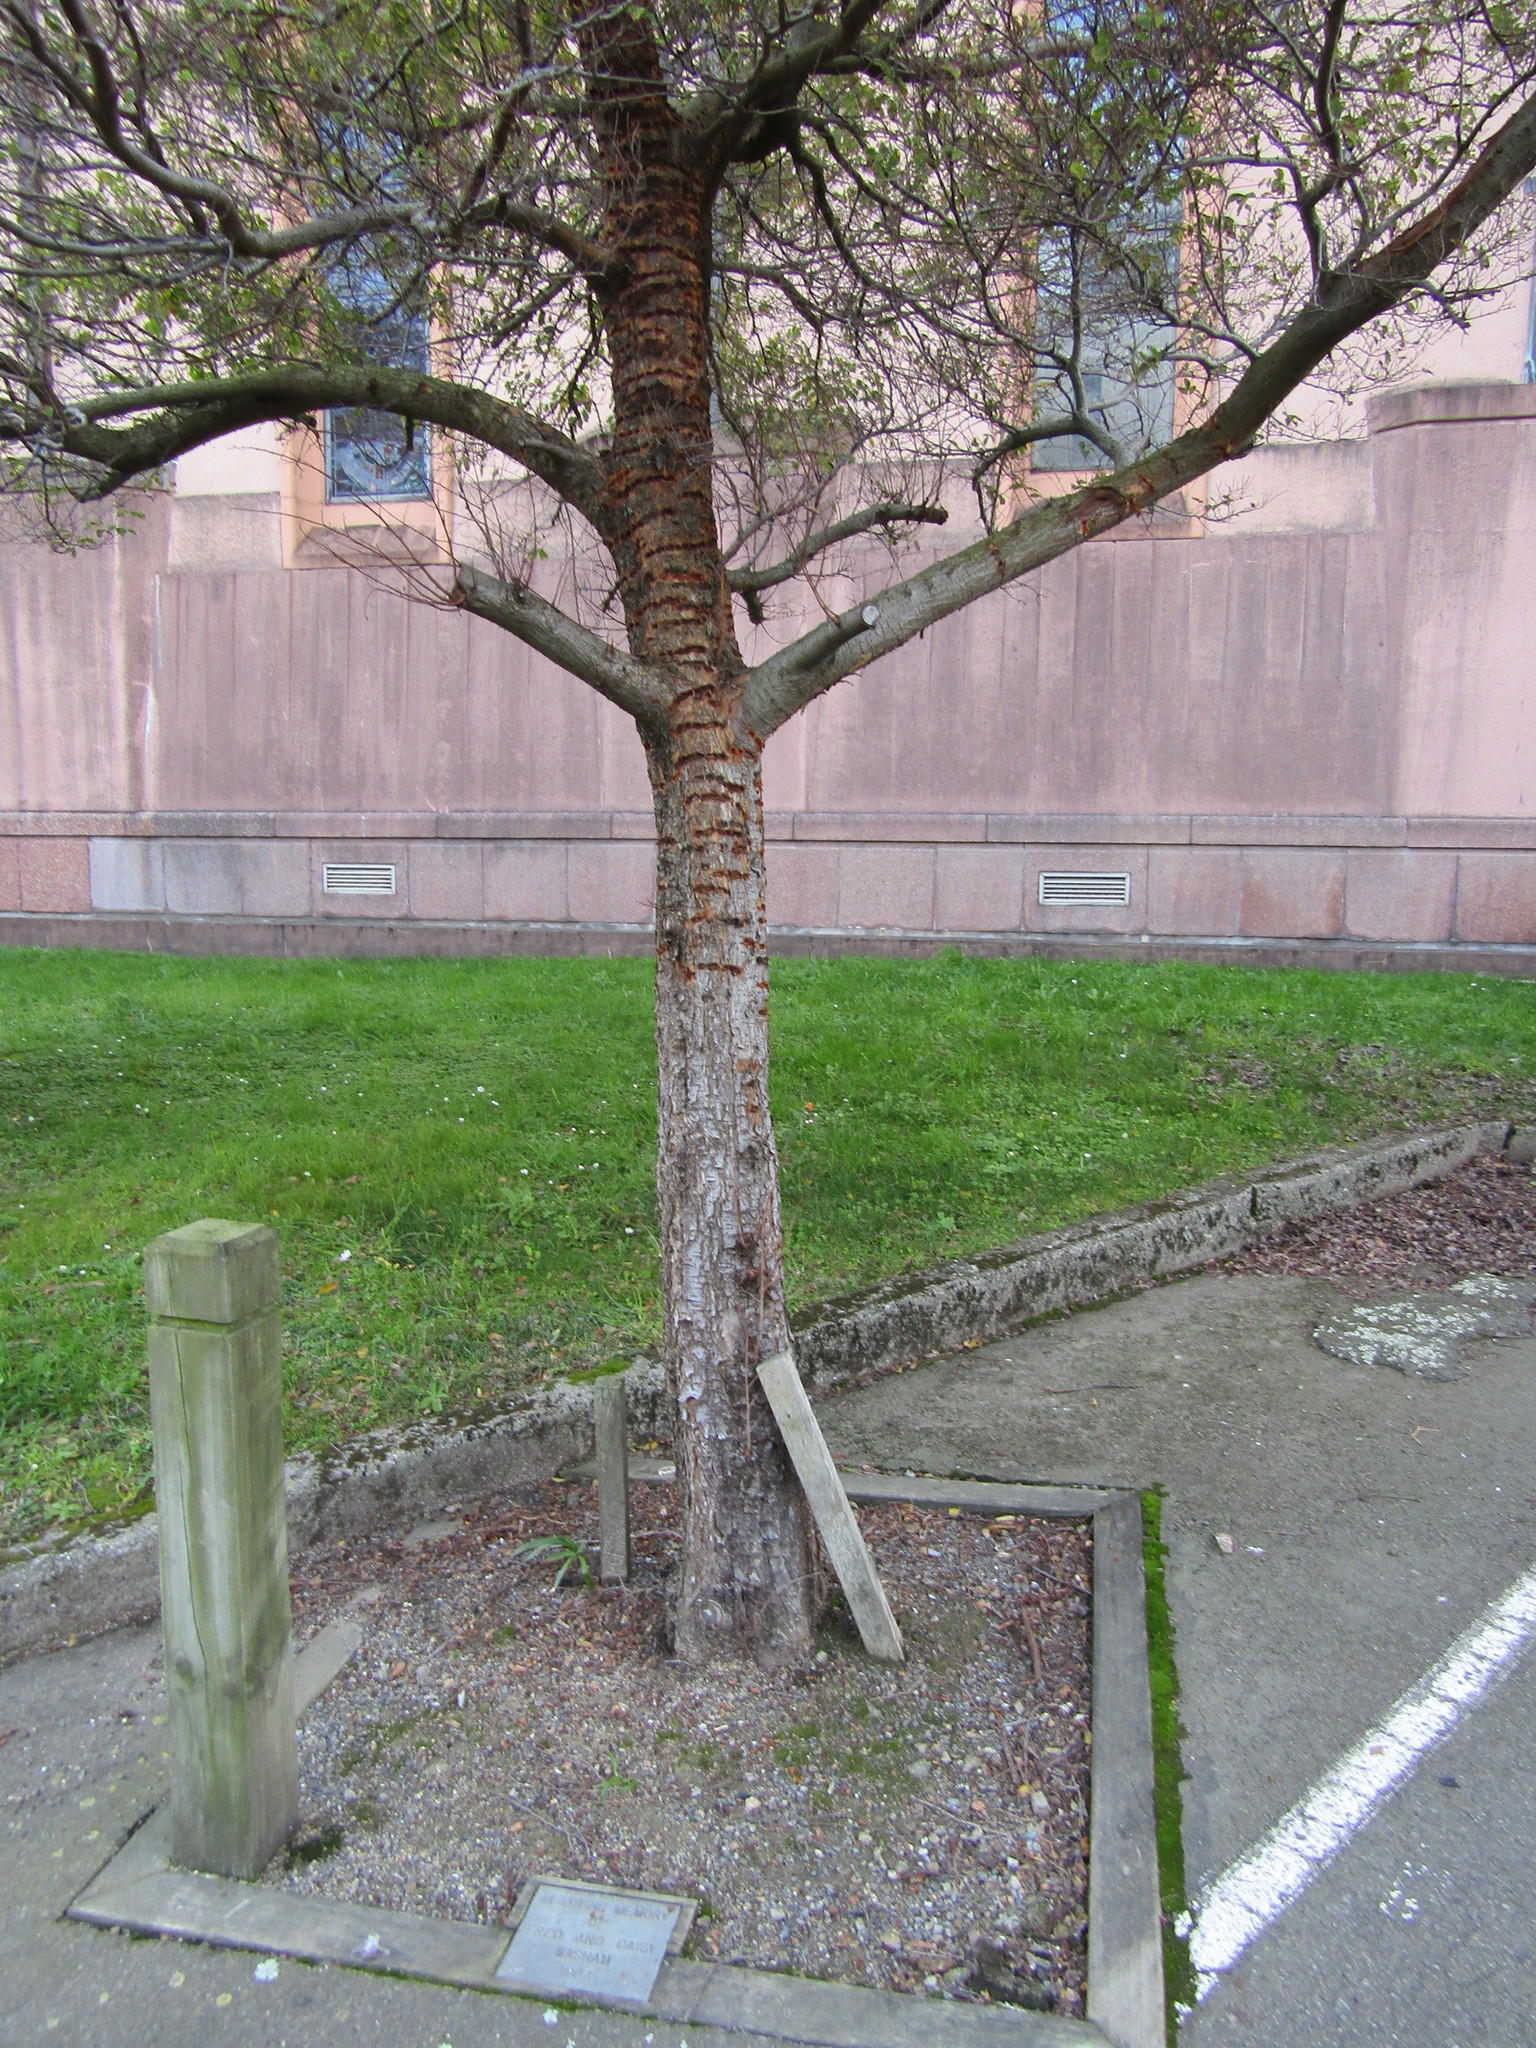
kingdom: Animalia
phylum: Chordata
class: Aves
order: Psittaciformes
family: Psittacidae
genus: Nestor
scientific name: Nestor meridionalis
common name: New zealand kaka
